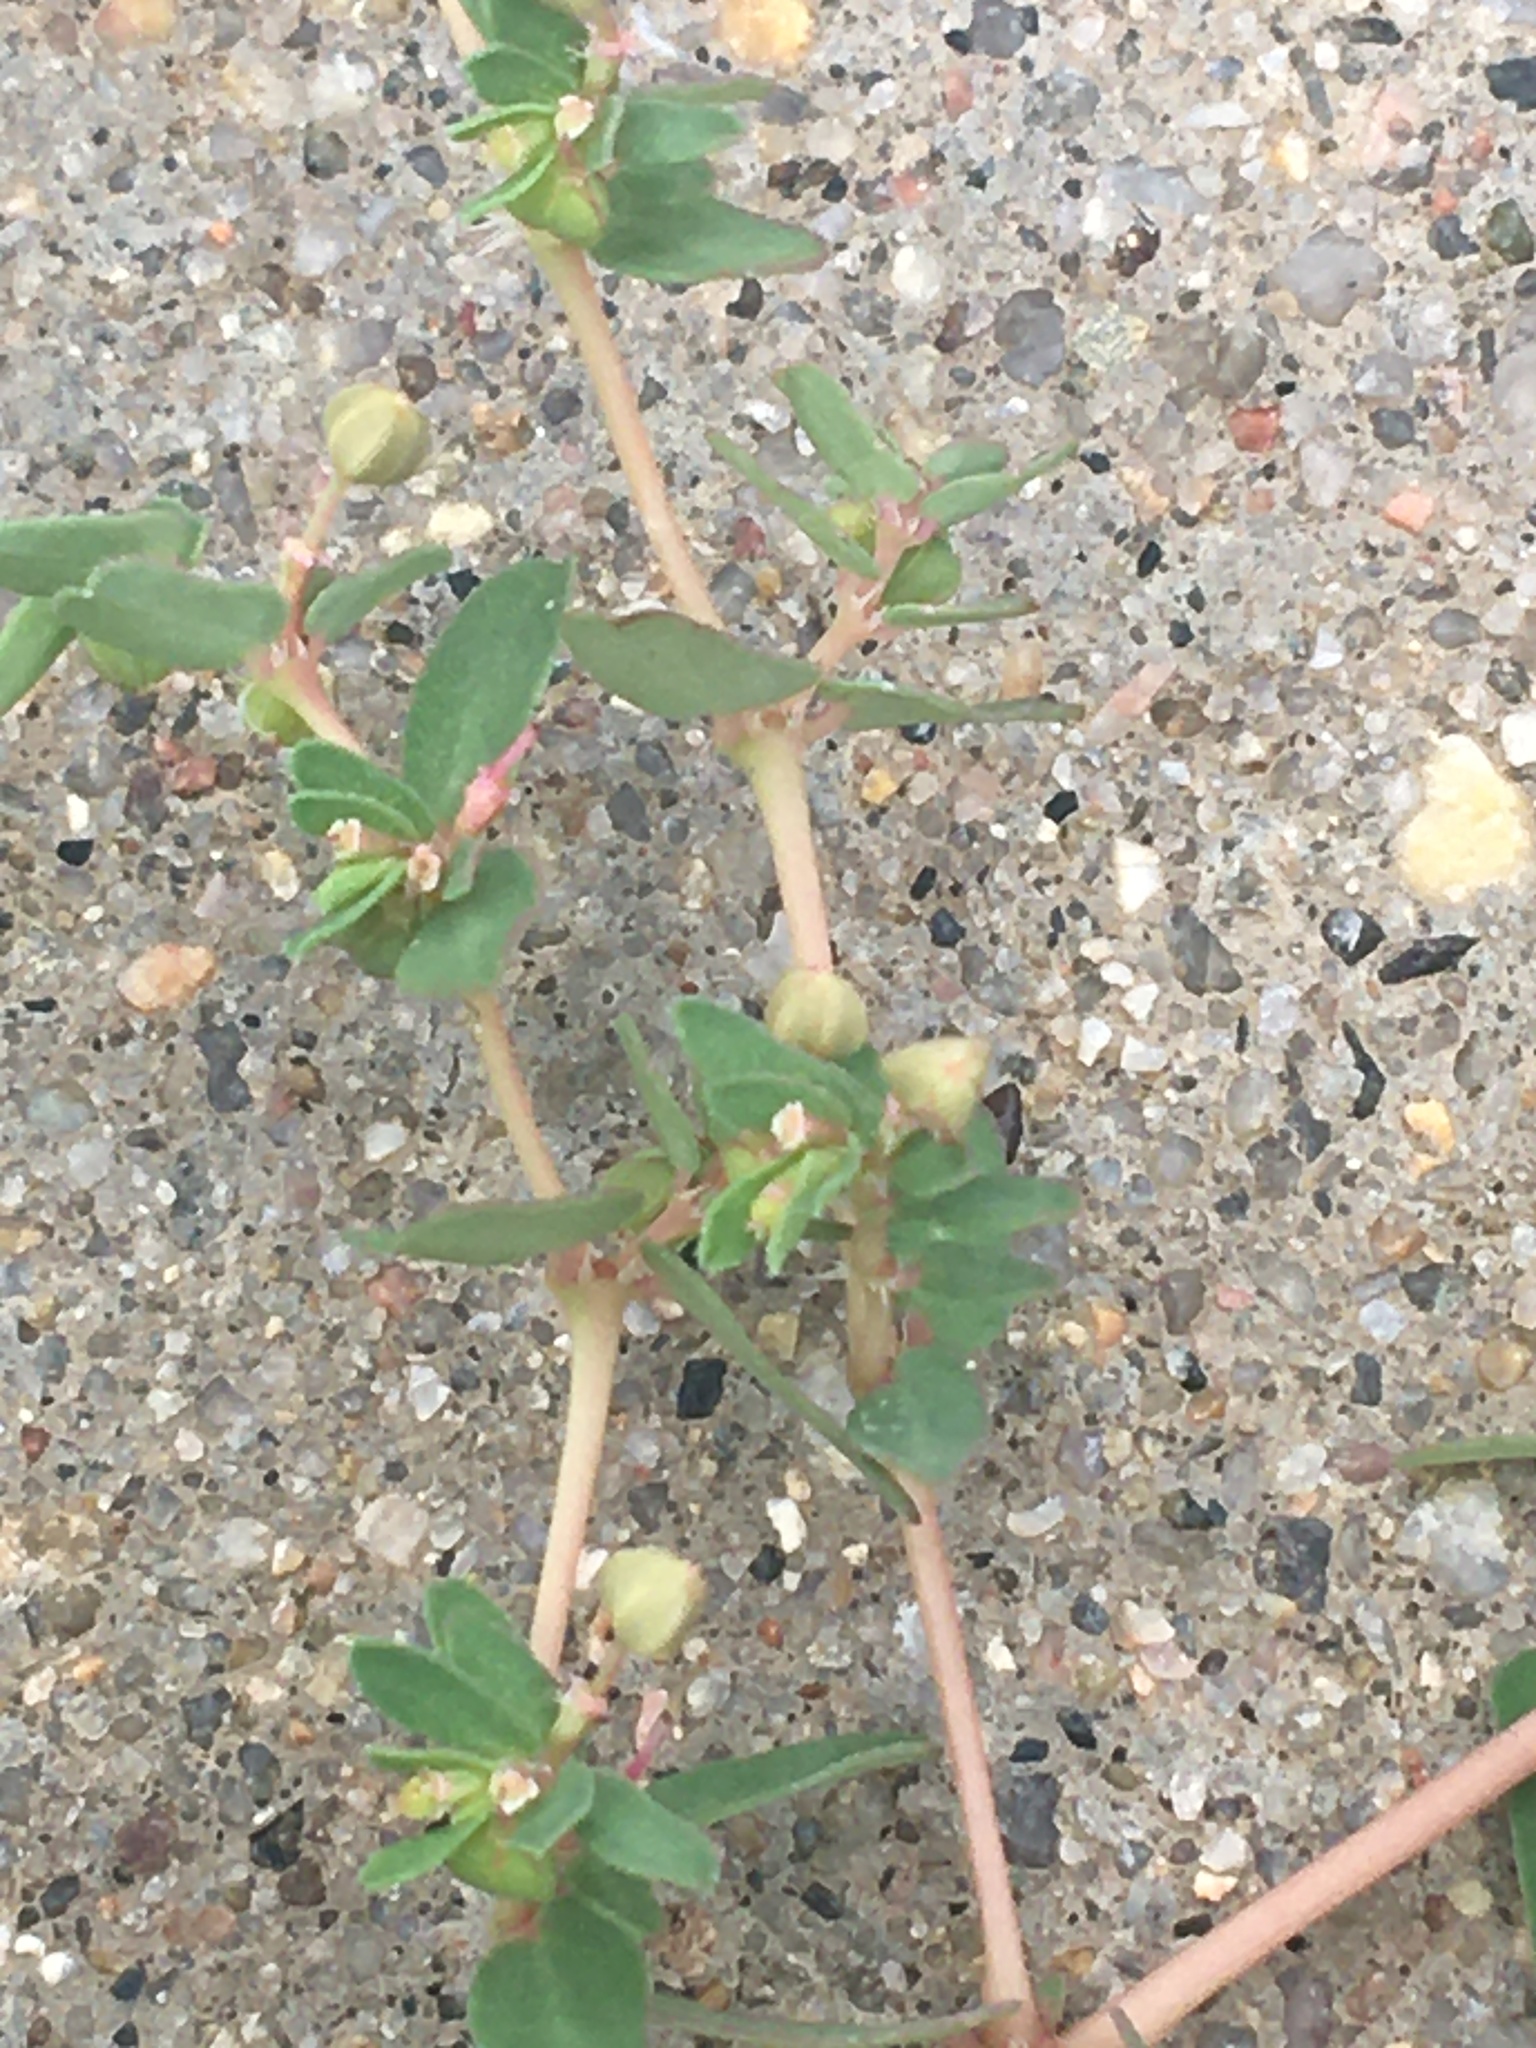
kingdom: Plantae
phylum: Tracheophyta
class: Magnoliopsida
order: Malpighiales
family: Euphorbiaceae
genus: Euphorbia
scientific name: Euphorbia glyptosperma
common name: Corrugate-seeded spurge
